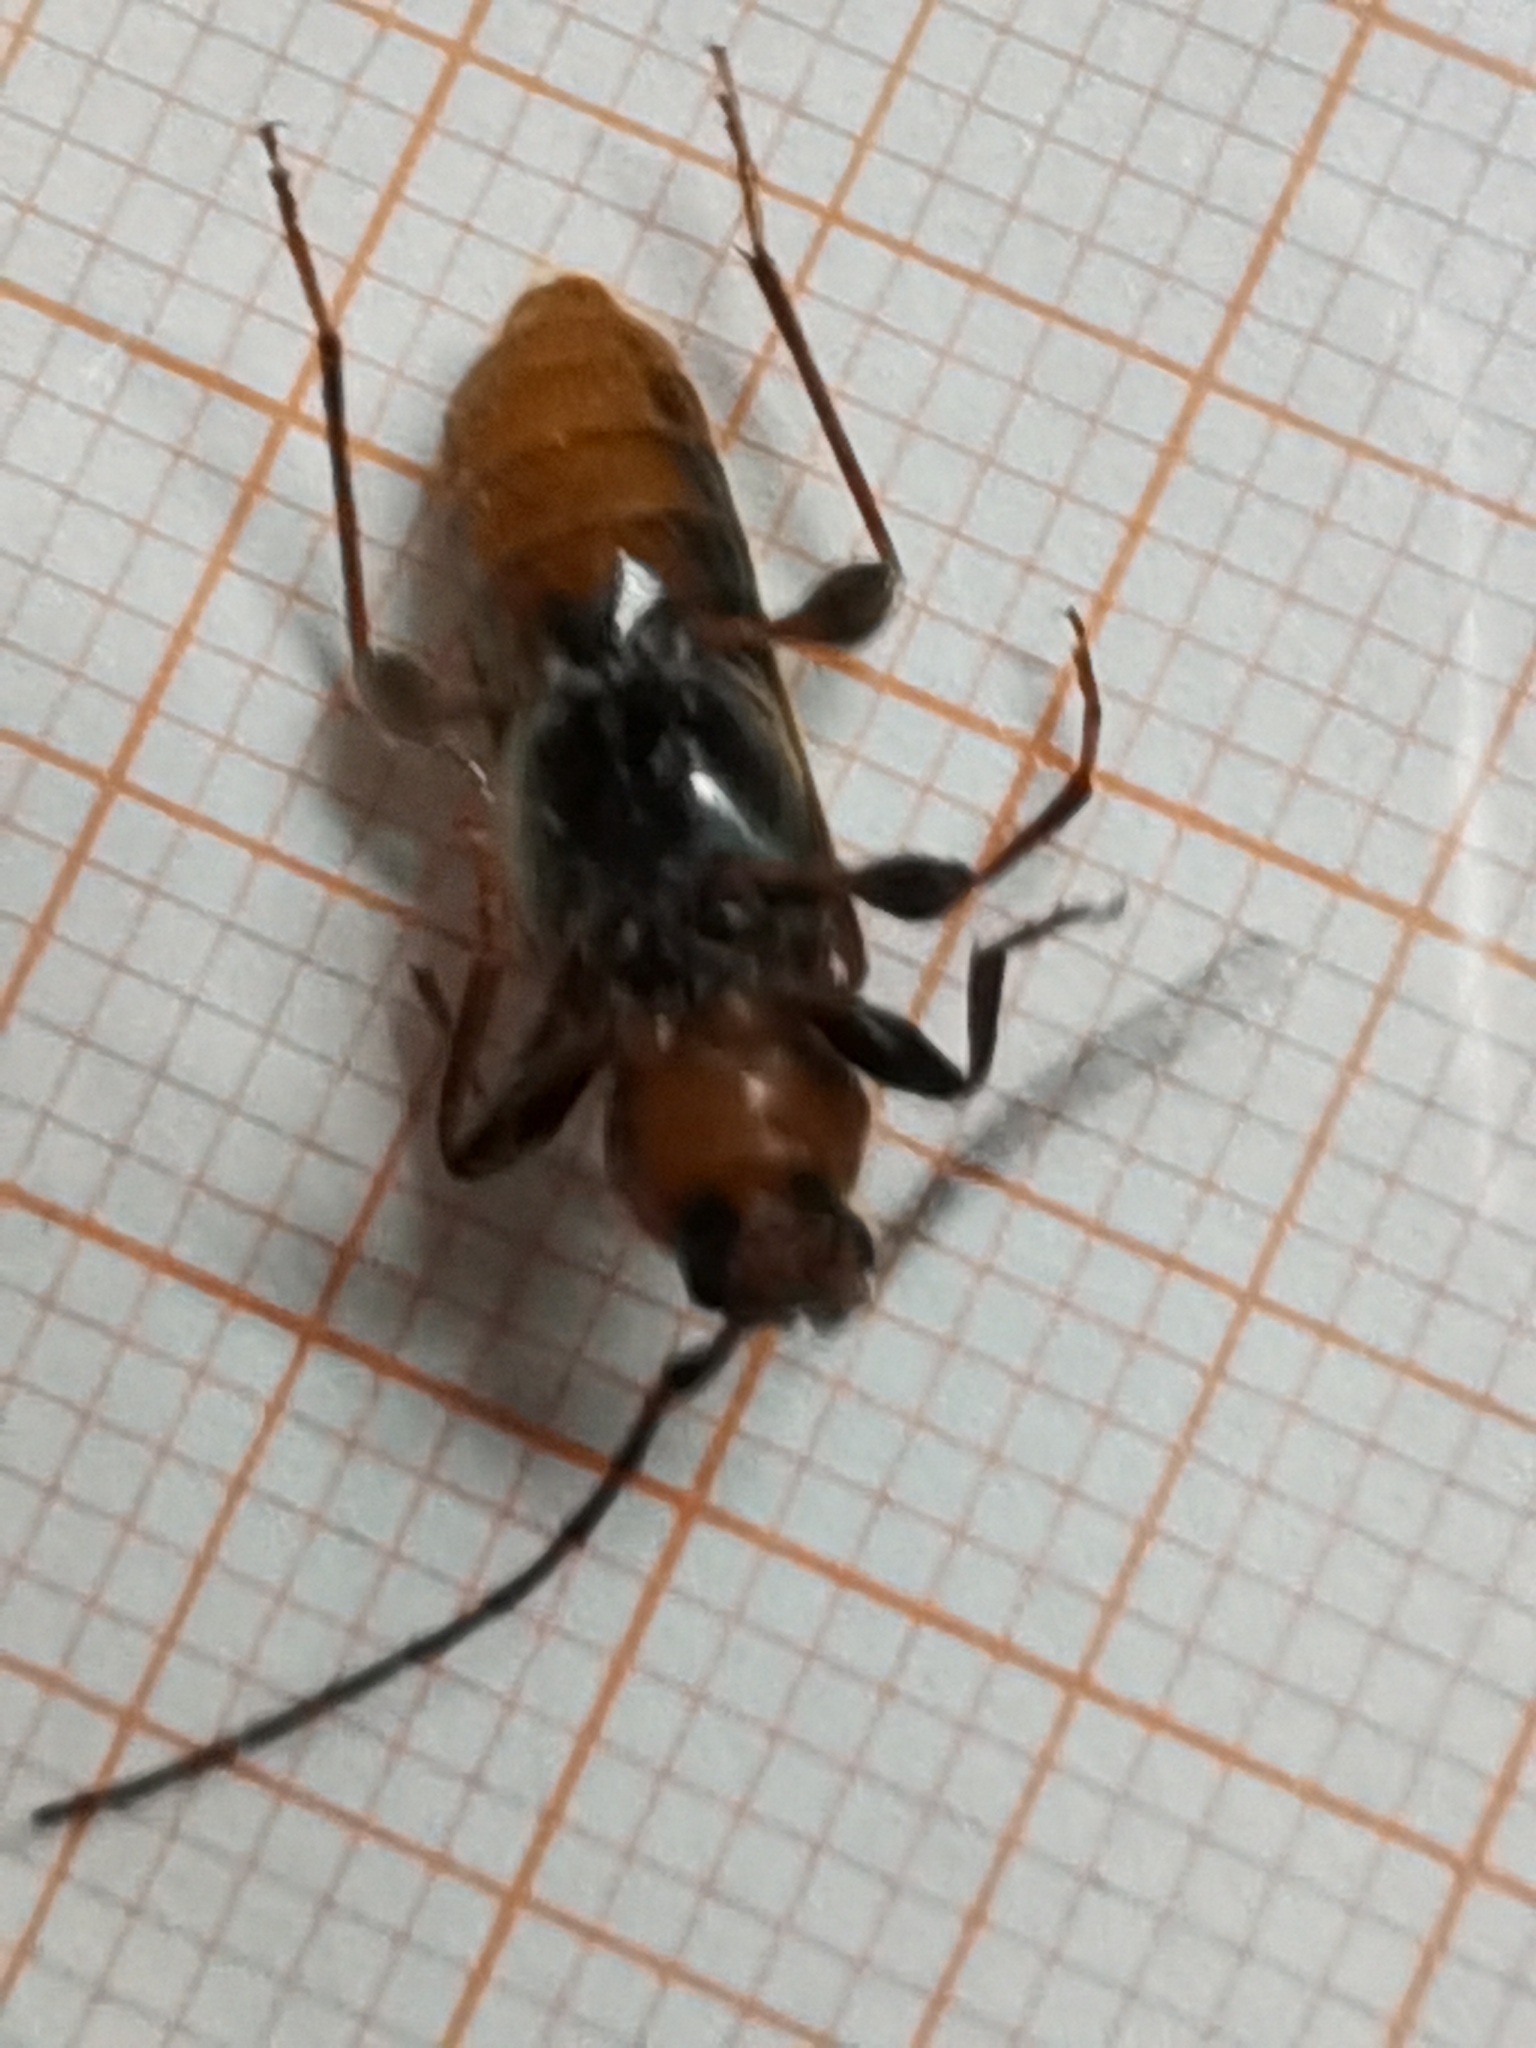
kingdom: Animalia
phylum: Arthropoda
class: Insecta
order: Coleoptera
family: Cerambycidae
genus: Phymatodes
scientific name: Phymatodes testaceus
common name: Long-horned beetle
